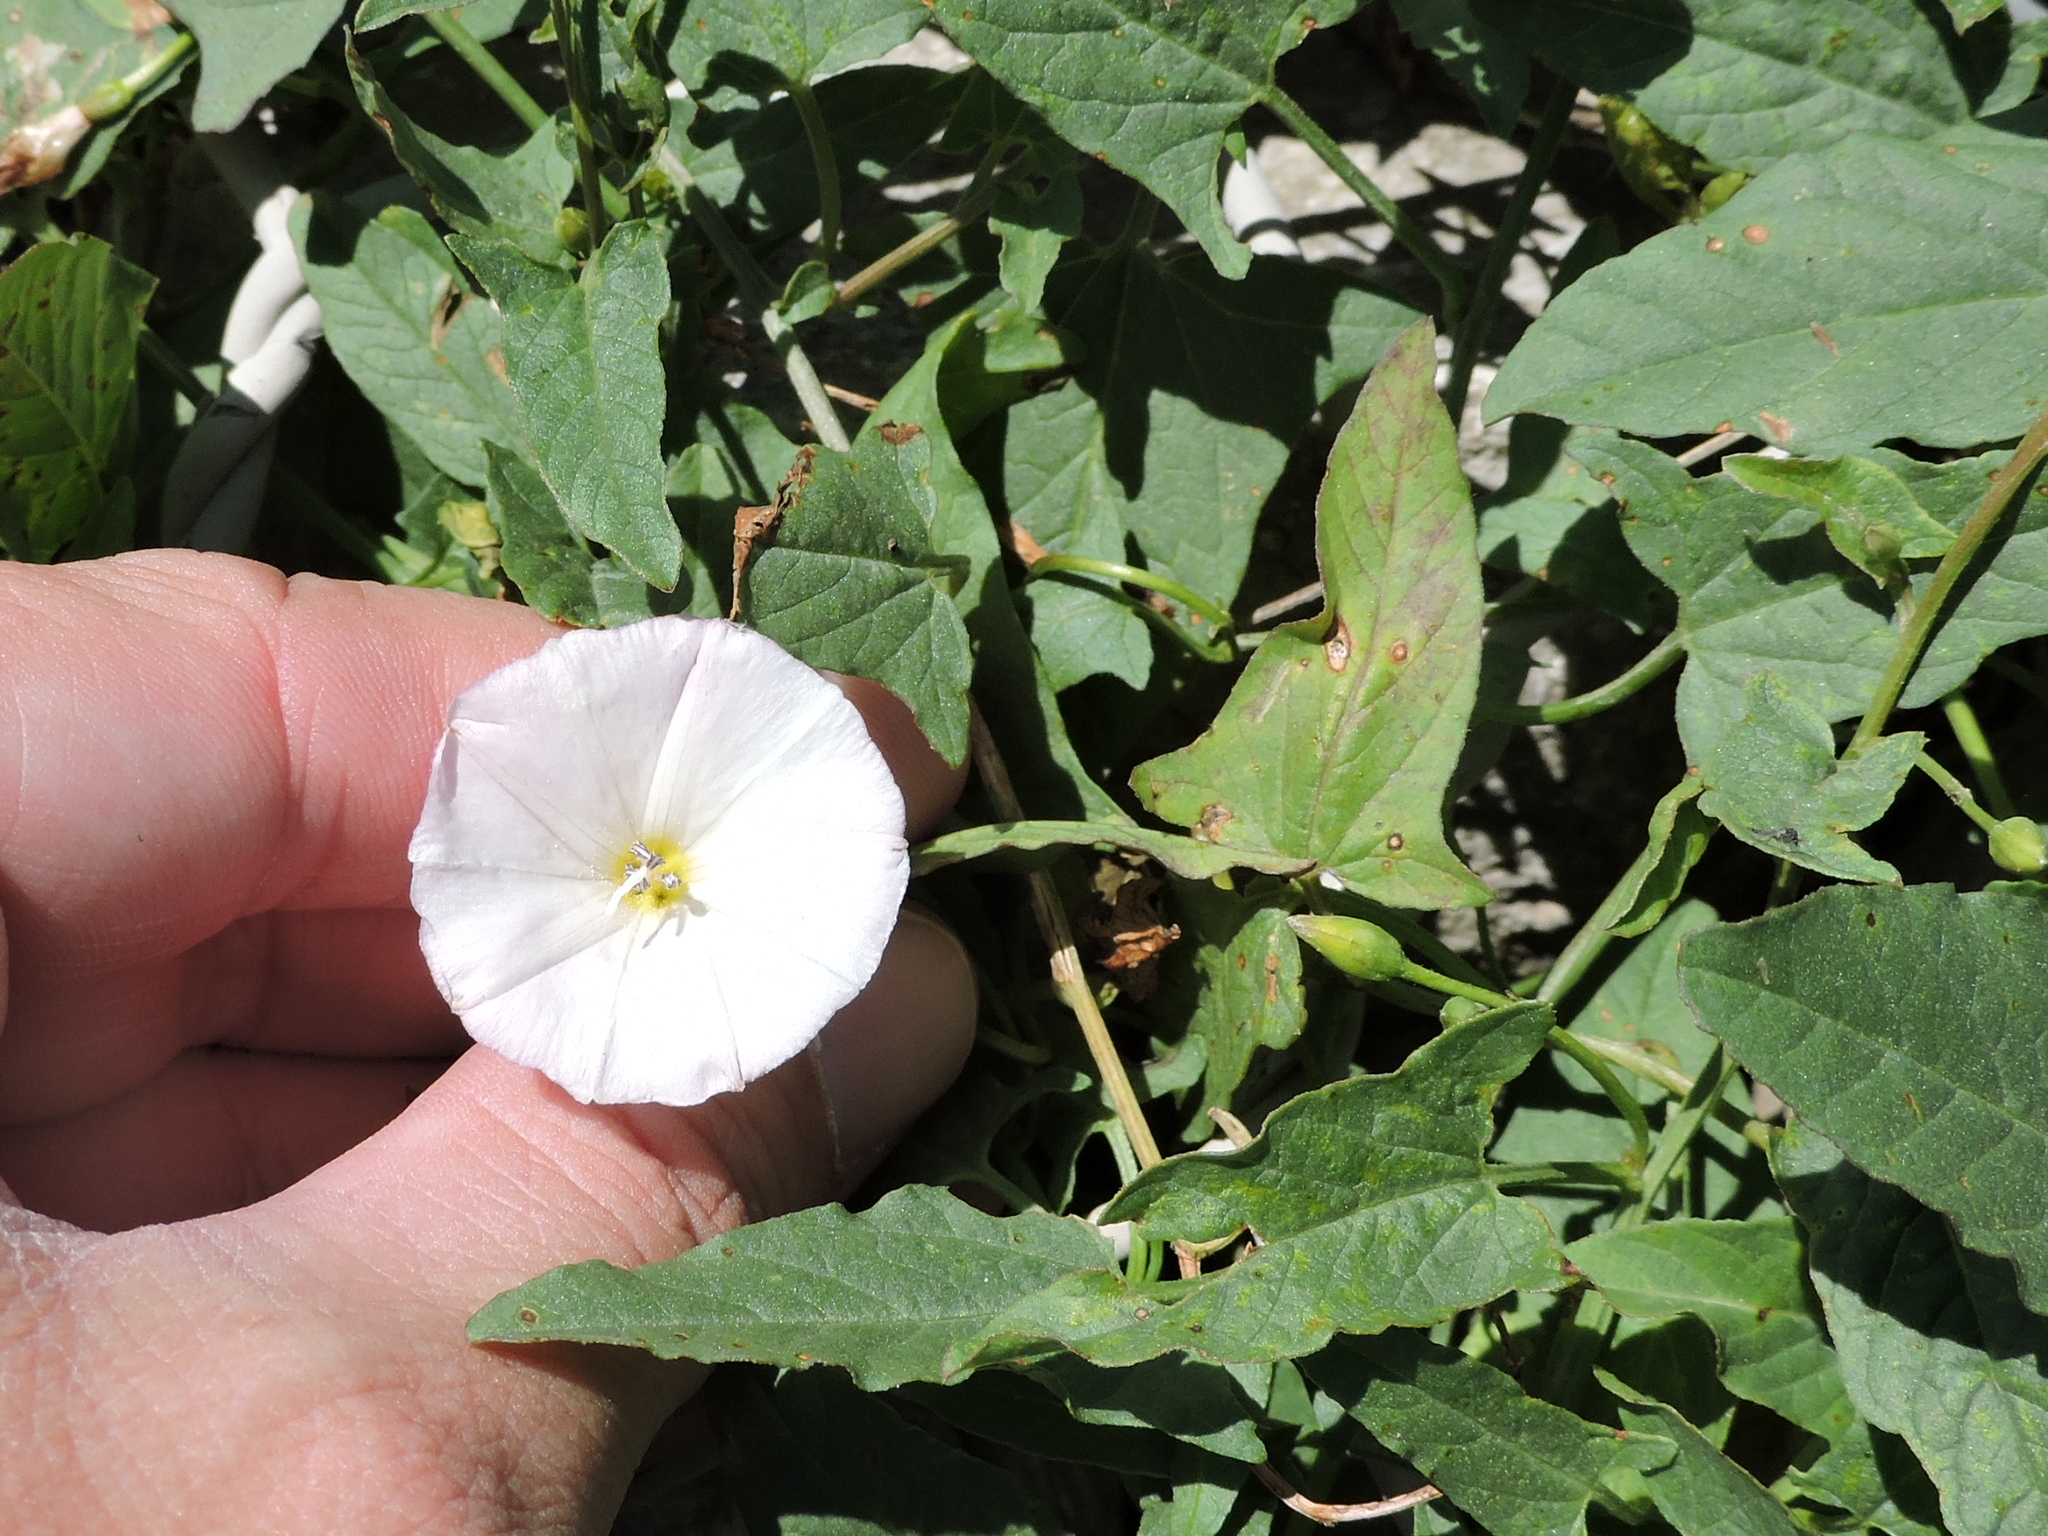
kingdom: Plantae
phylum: Tracheophyta
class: Magnoliopsida
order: Solanales
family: Convolvulaceae
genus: Convolvulus
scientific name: Convolvulus arvensis
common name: Field bindweed
